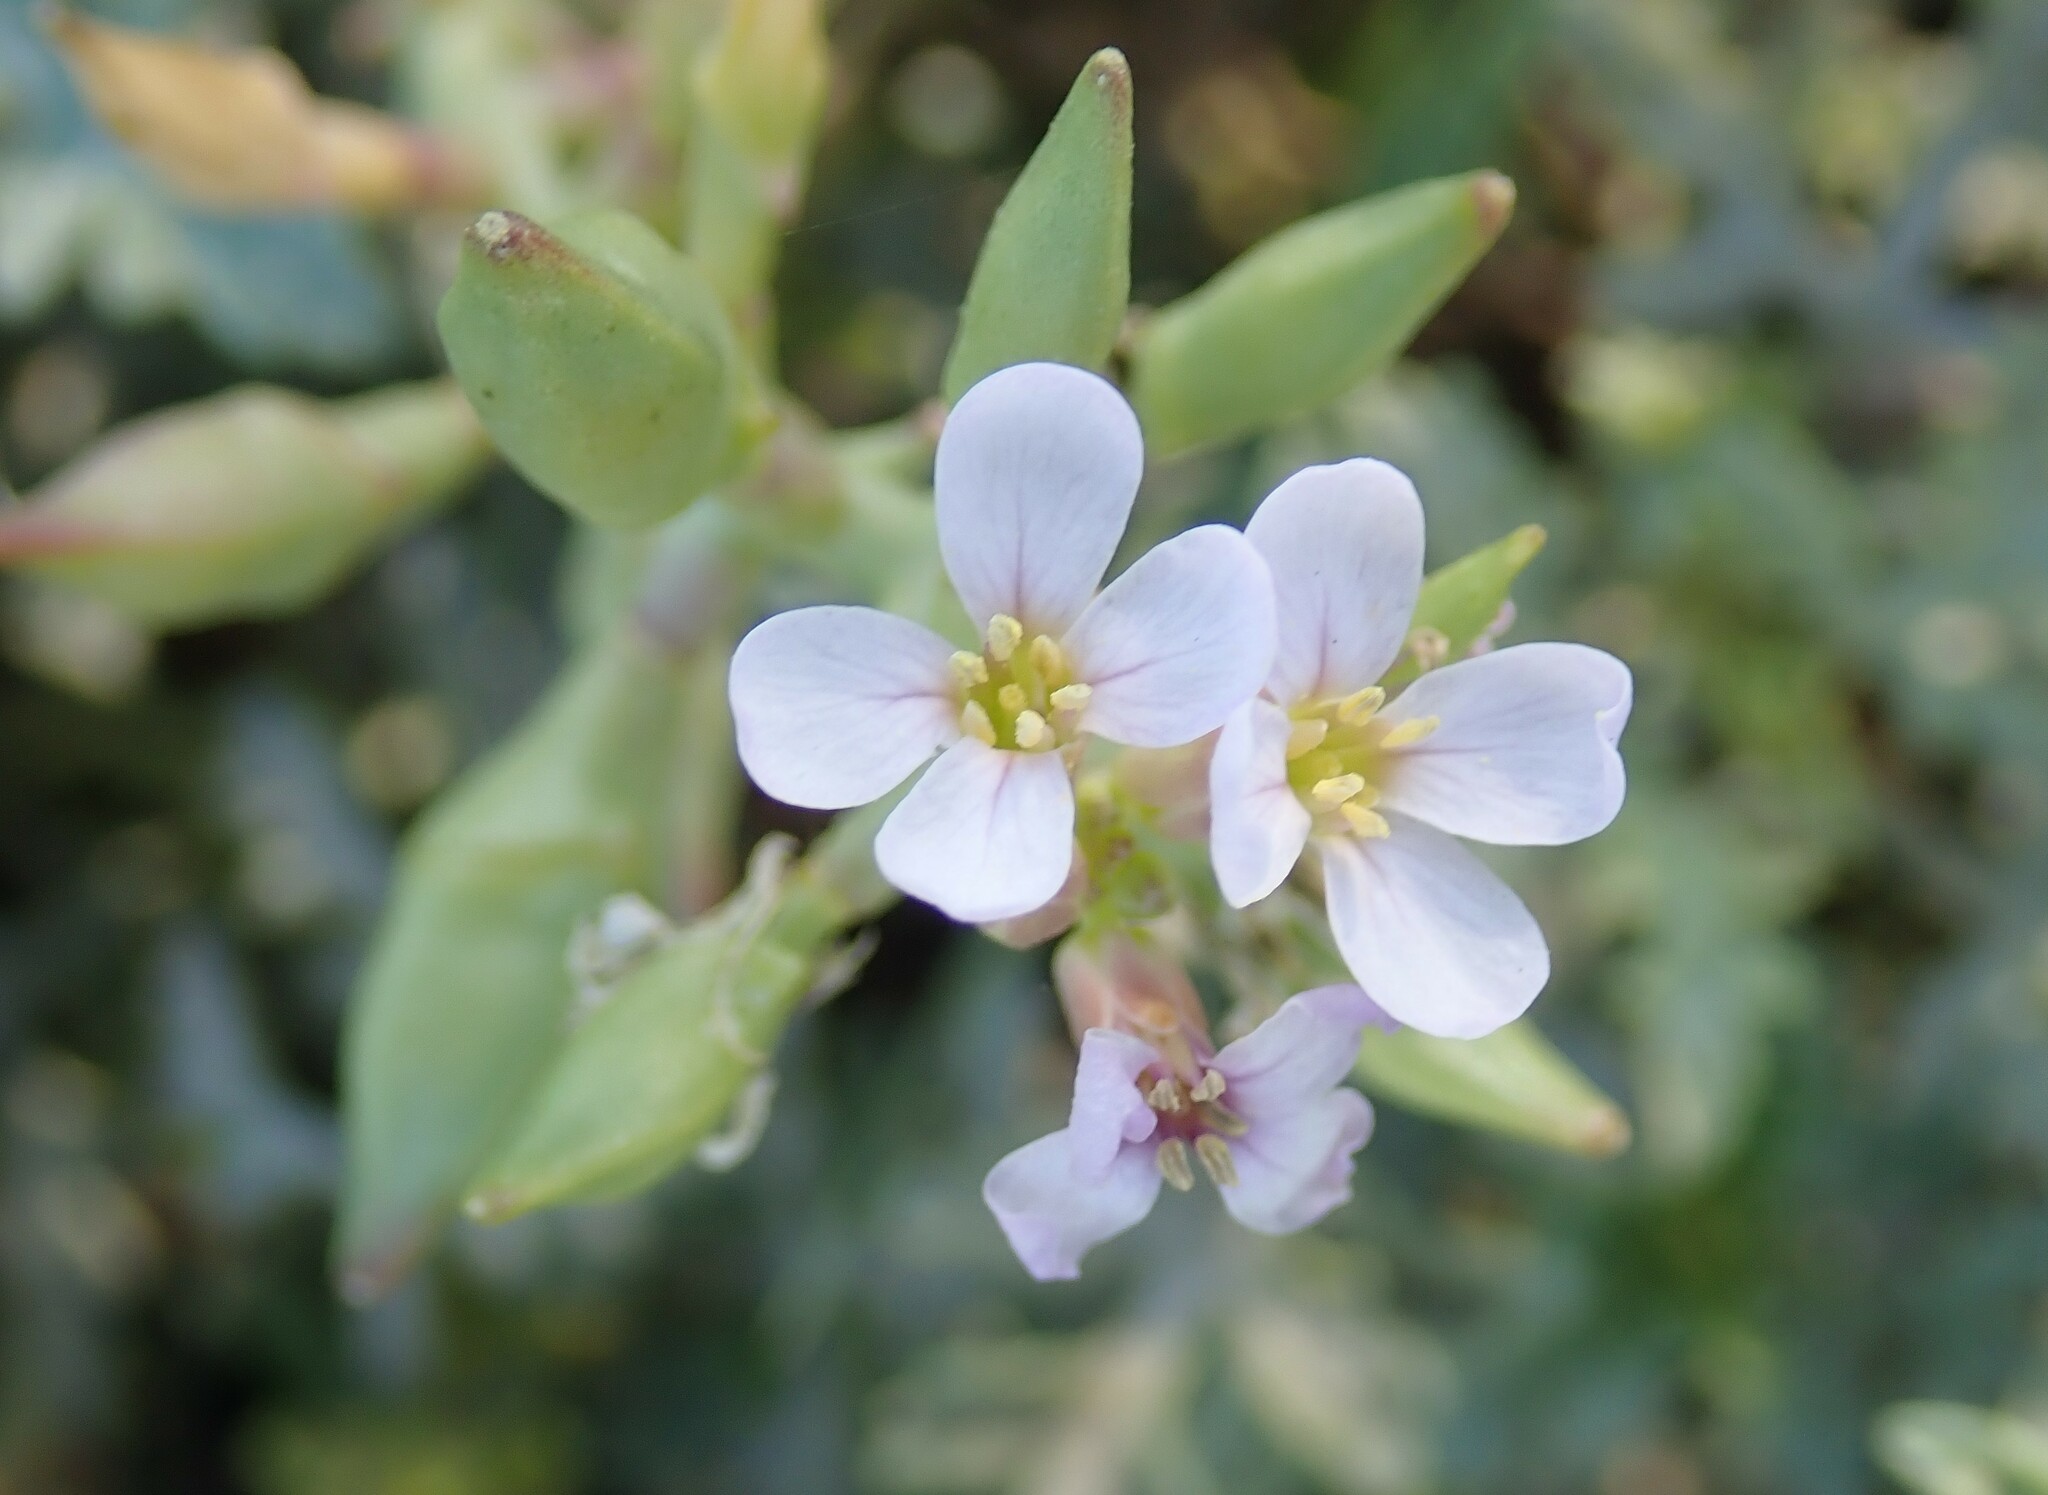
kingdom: Plantae
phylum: Tracheophyta
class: Magnoliopsida
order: Brassicales
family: Brassicaceae
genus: Cakile
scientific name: Cakile maritima
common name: Sea rocket
